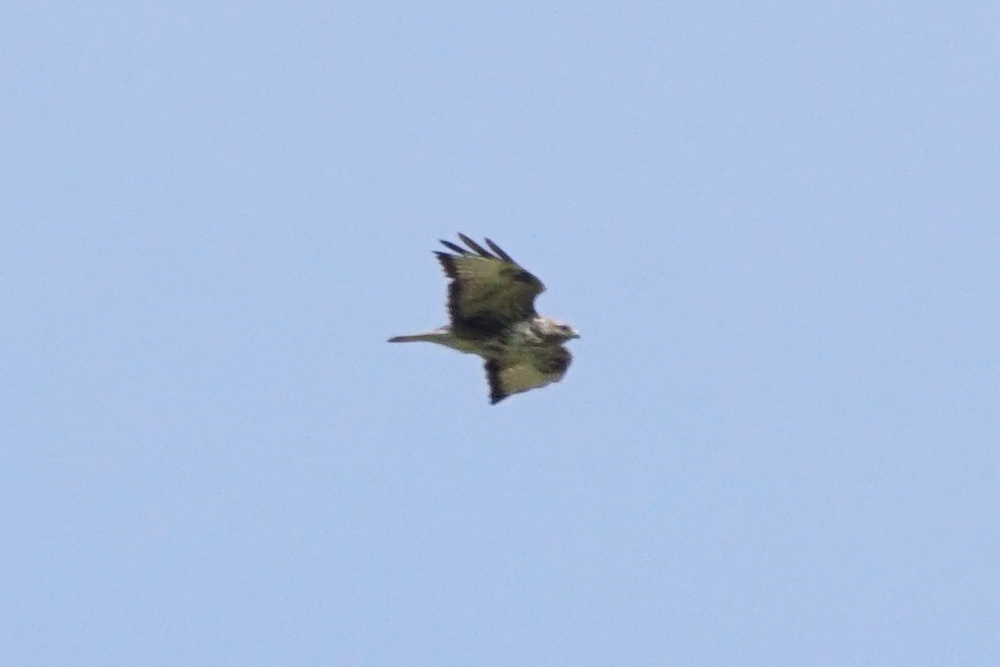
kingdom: Animalia
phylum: Chordata
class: Aves
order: Accipitriformes
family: Accipitridae
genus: Buteo
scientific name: Buteo buteo
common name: Common buzzard
